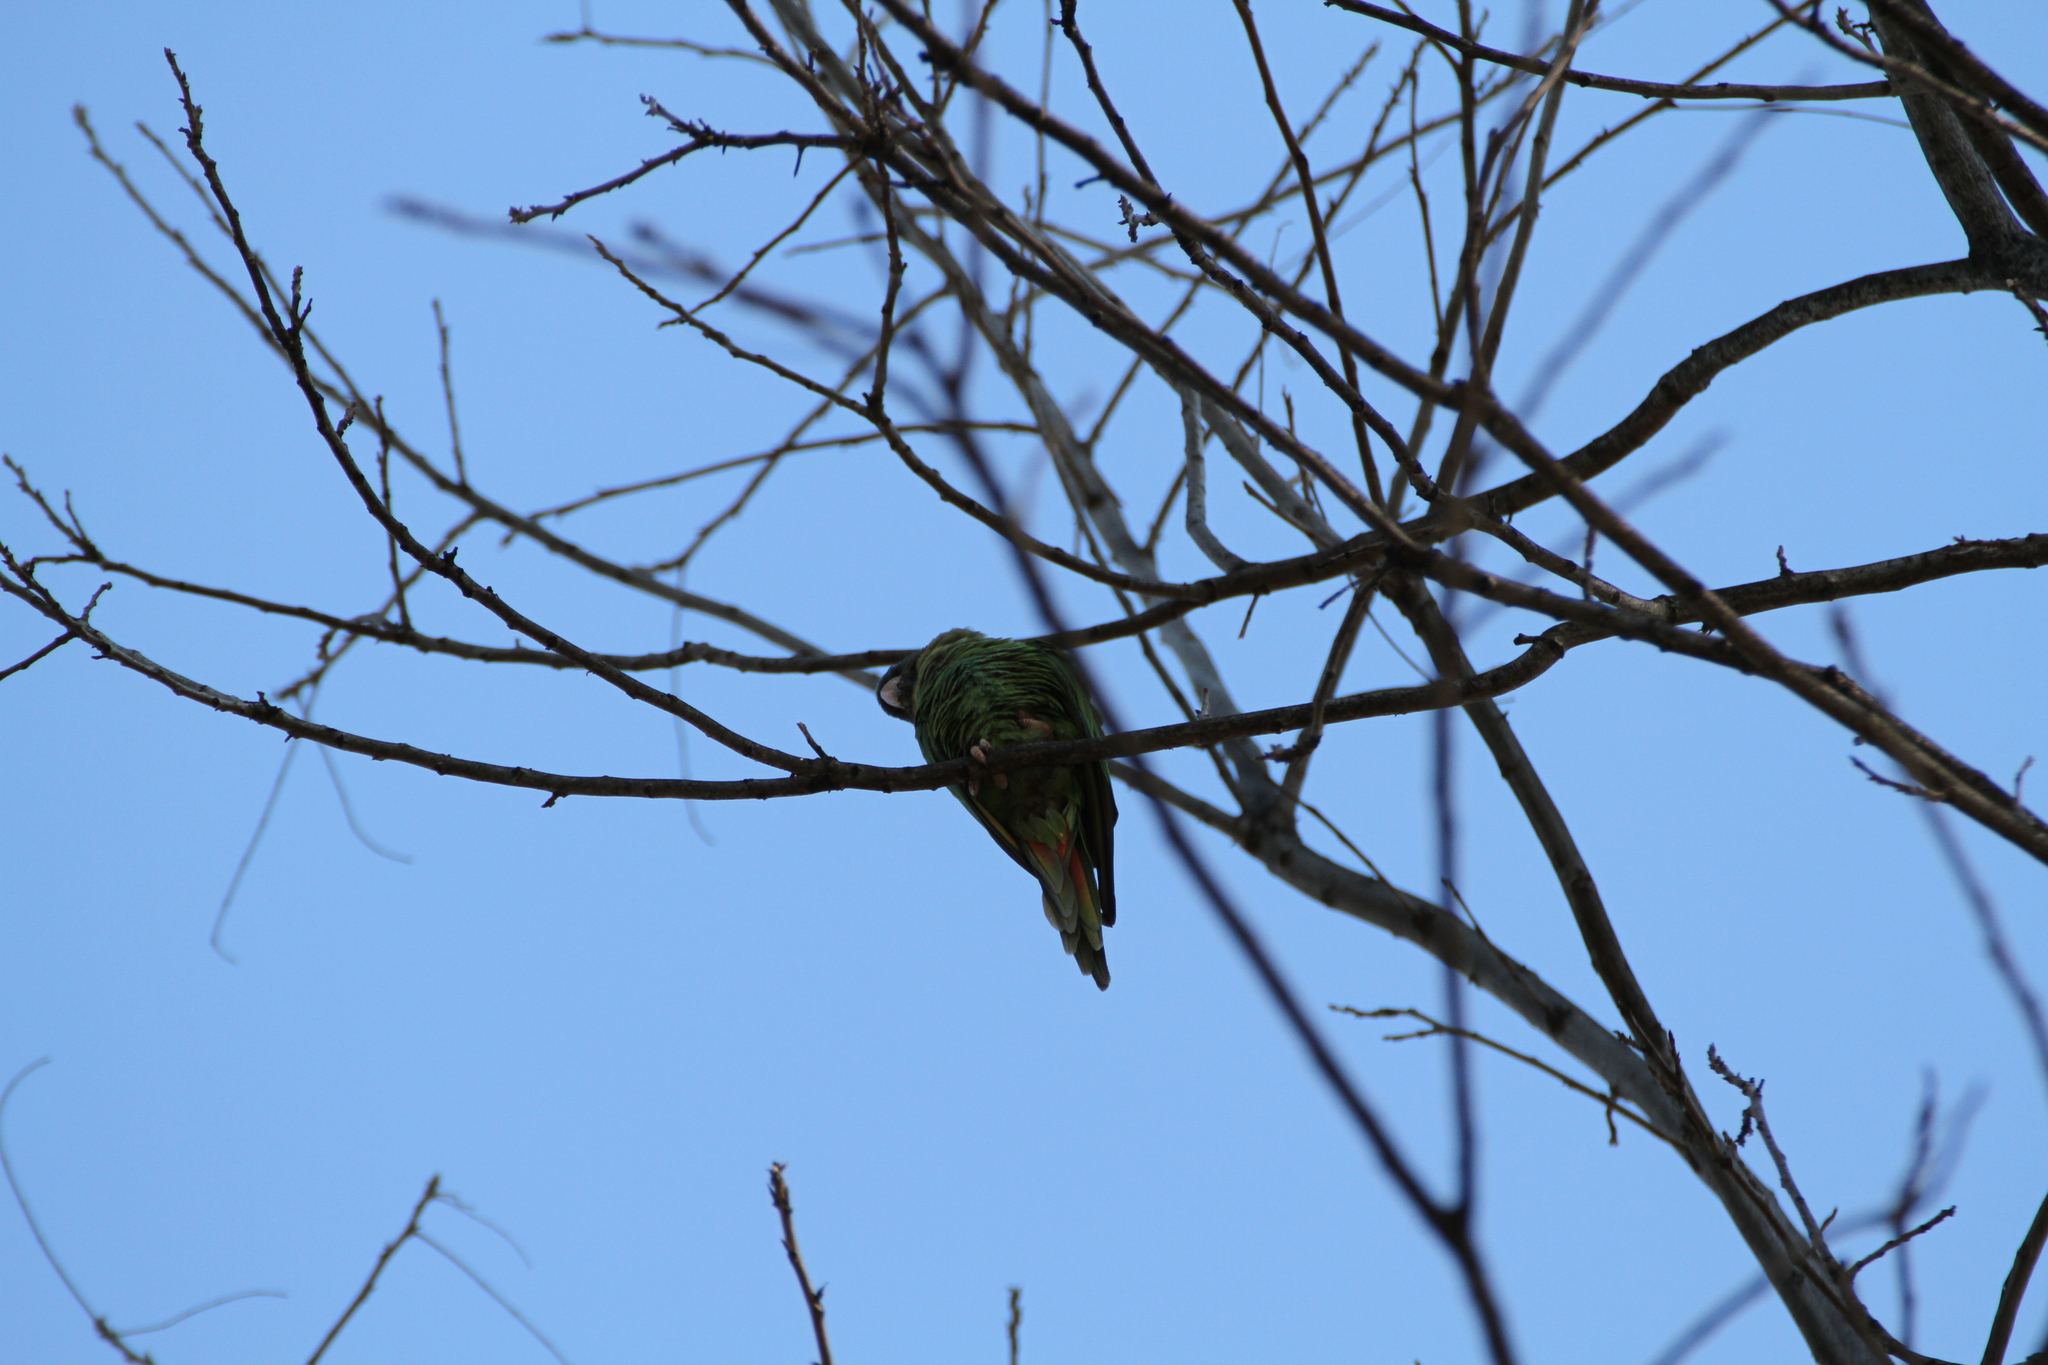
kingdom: Animalia
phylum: Chordata
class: Aves
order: Psittaciformes
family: Psittacidae
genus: Aratinga
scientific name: Aratinga acuticaudata
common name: Blue-crowned parakeet
